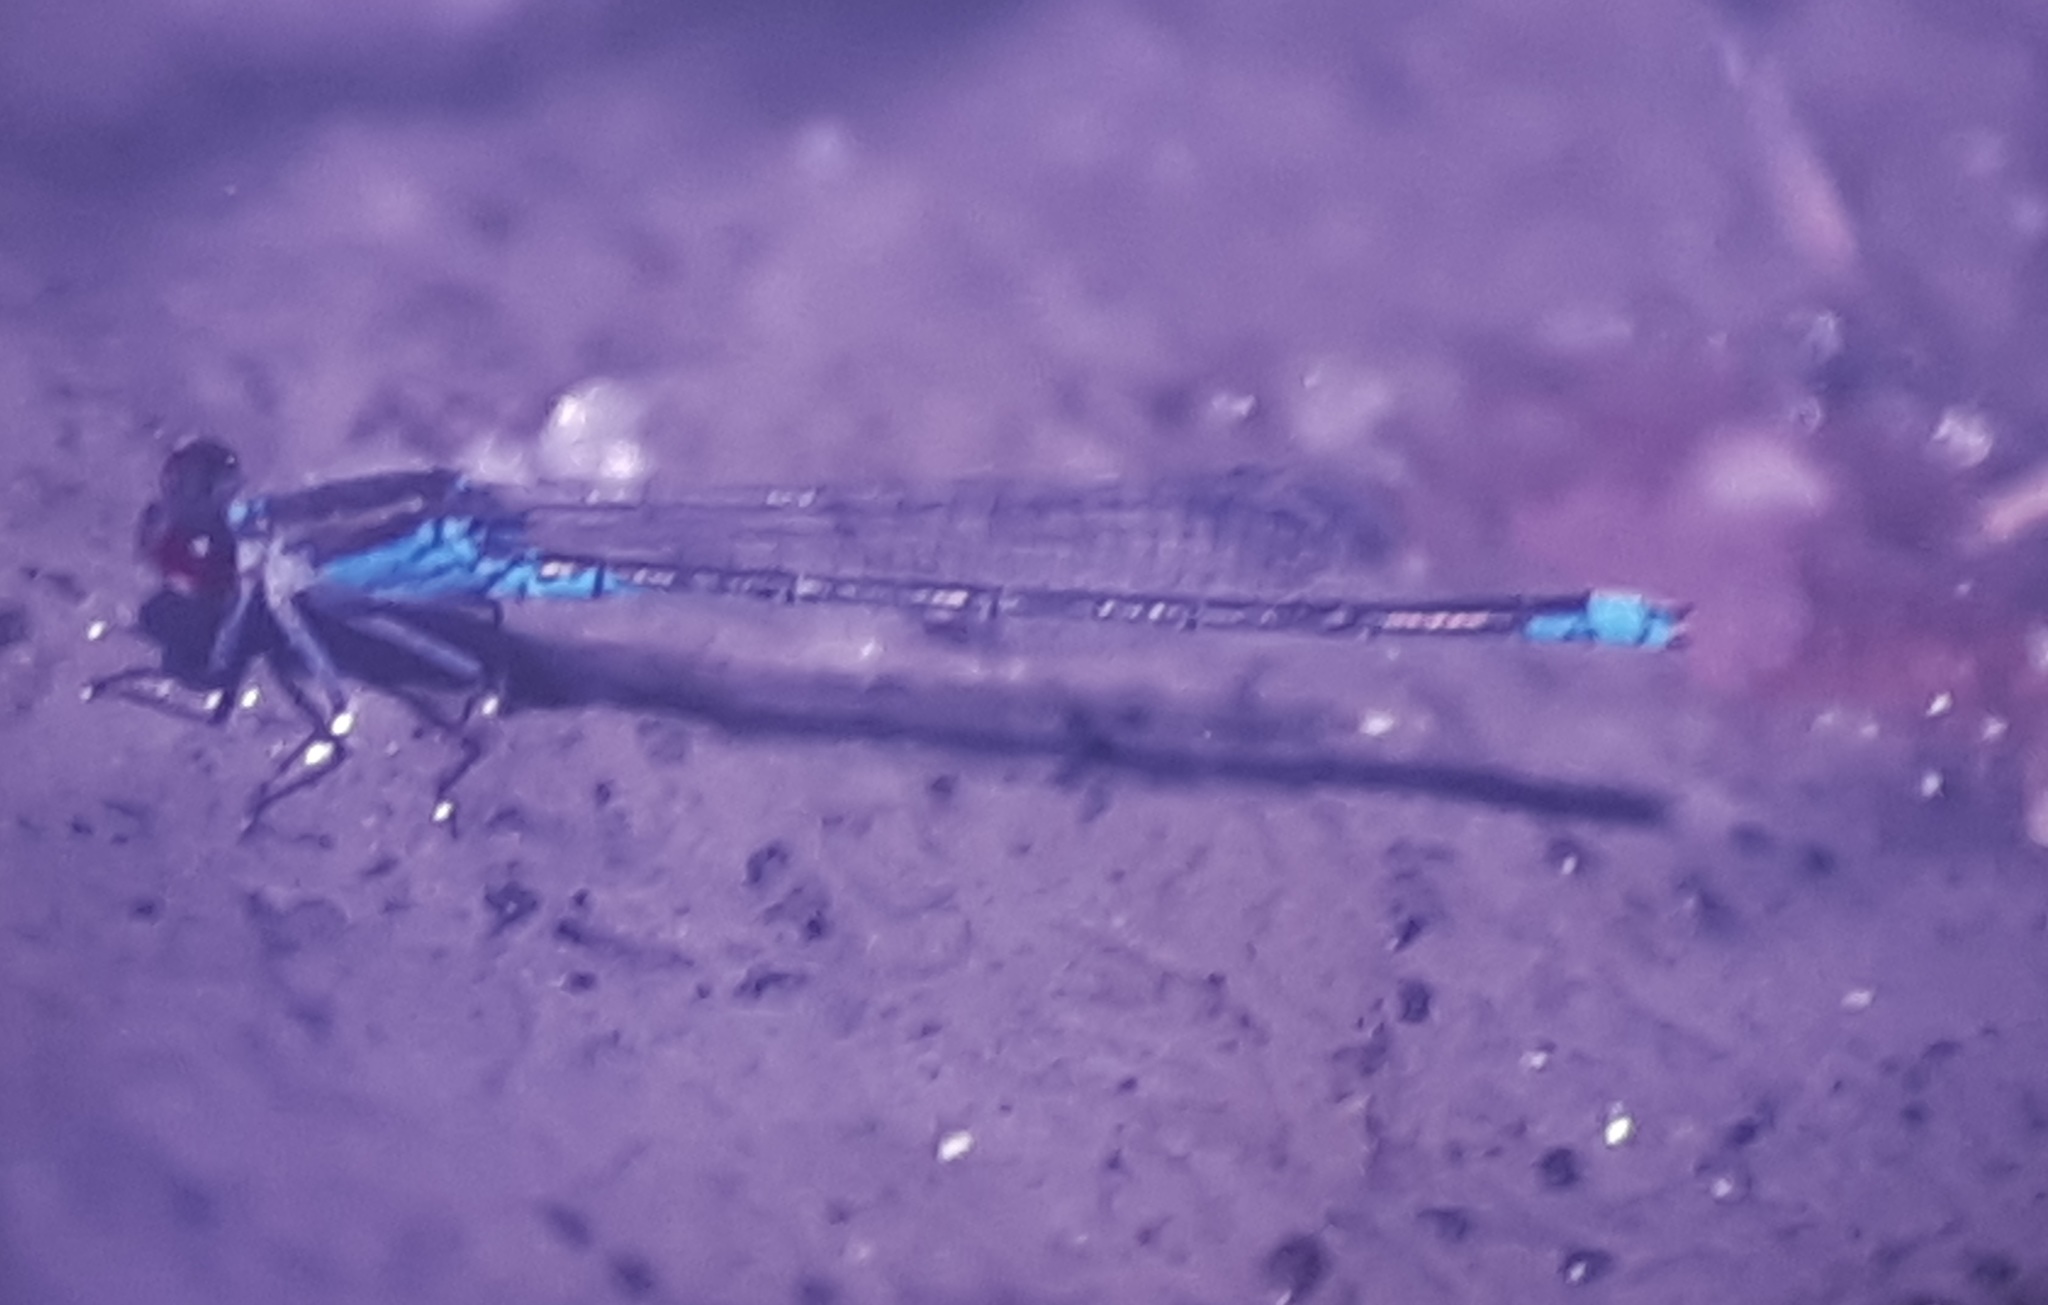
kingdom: Animalia
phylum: Arthropoda
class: Insecta
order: Odonata
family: Coenagrionidae
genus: Erythromma
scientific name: Erythromma viridulum
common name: Small red-eyed damselfly
